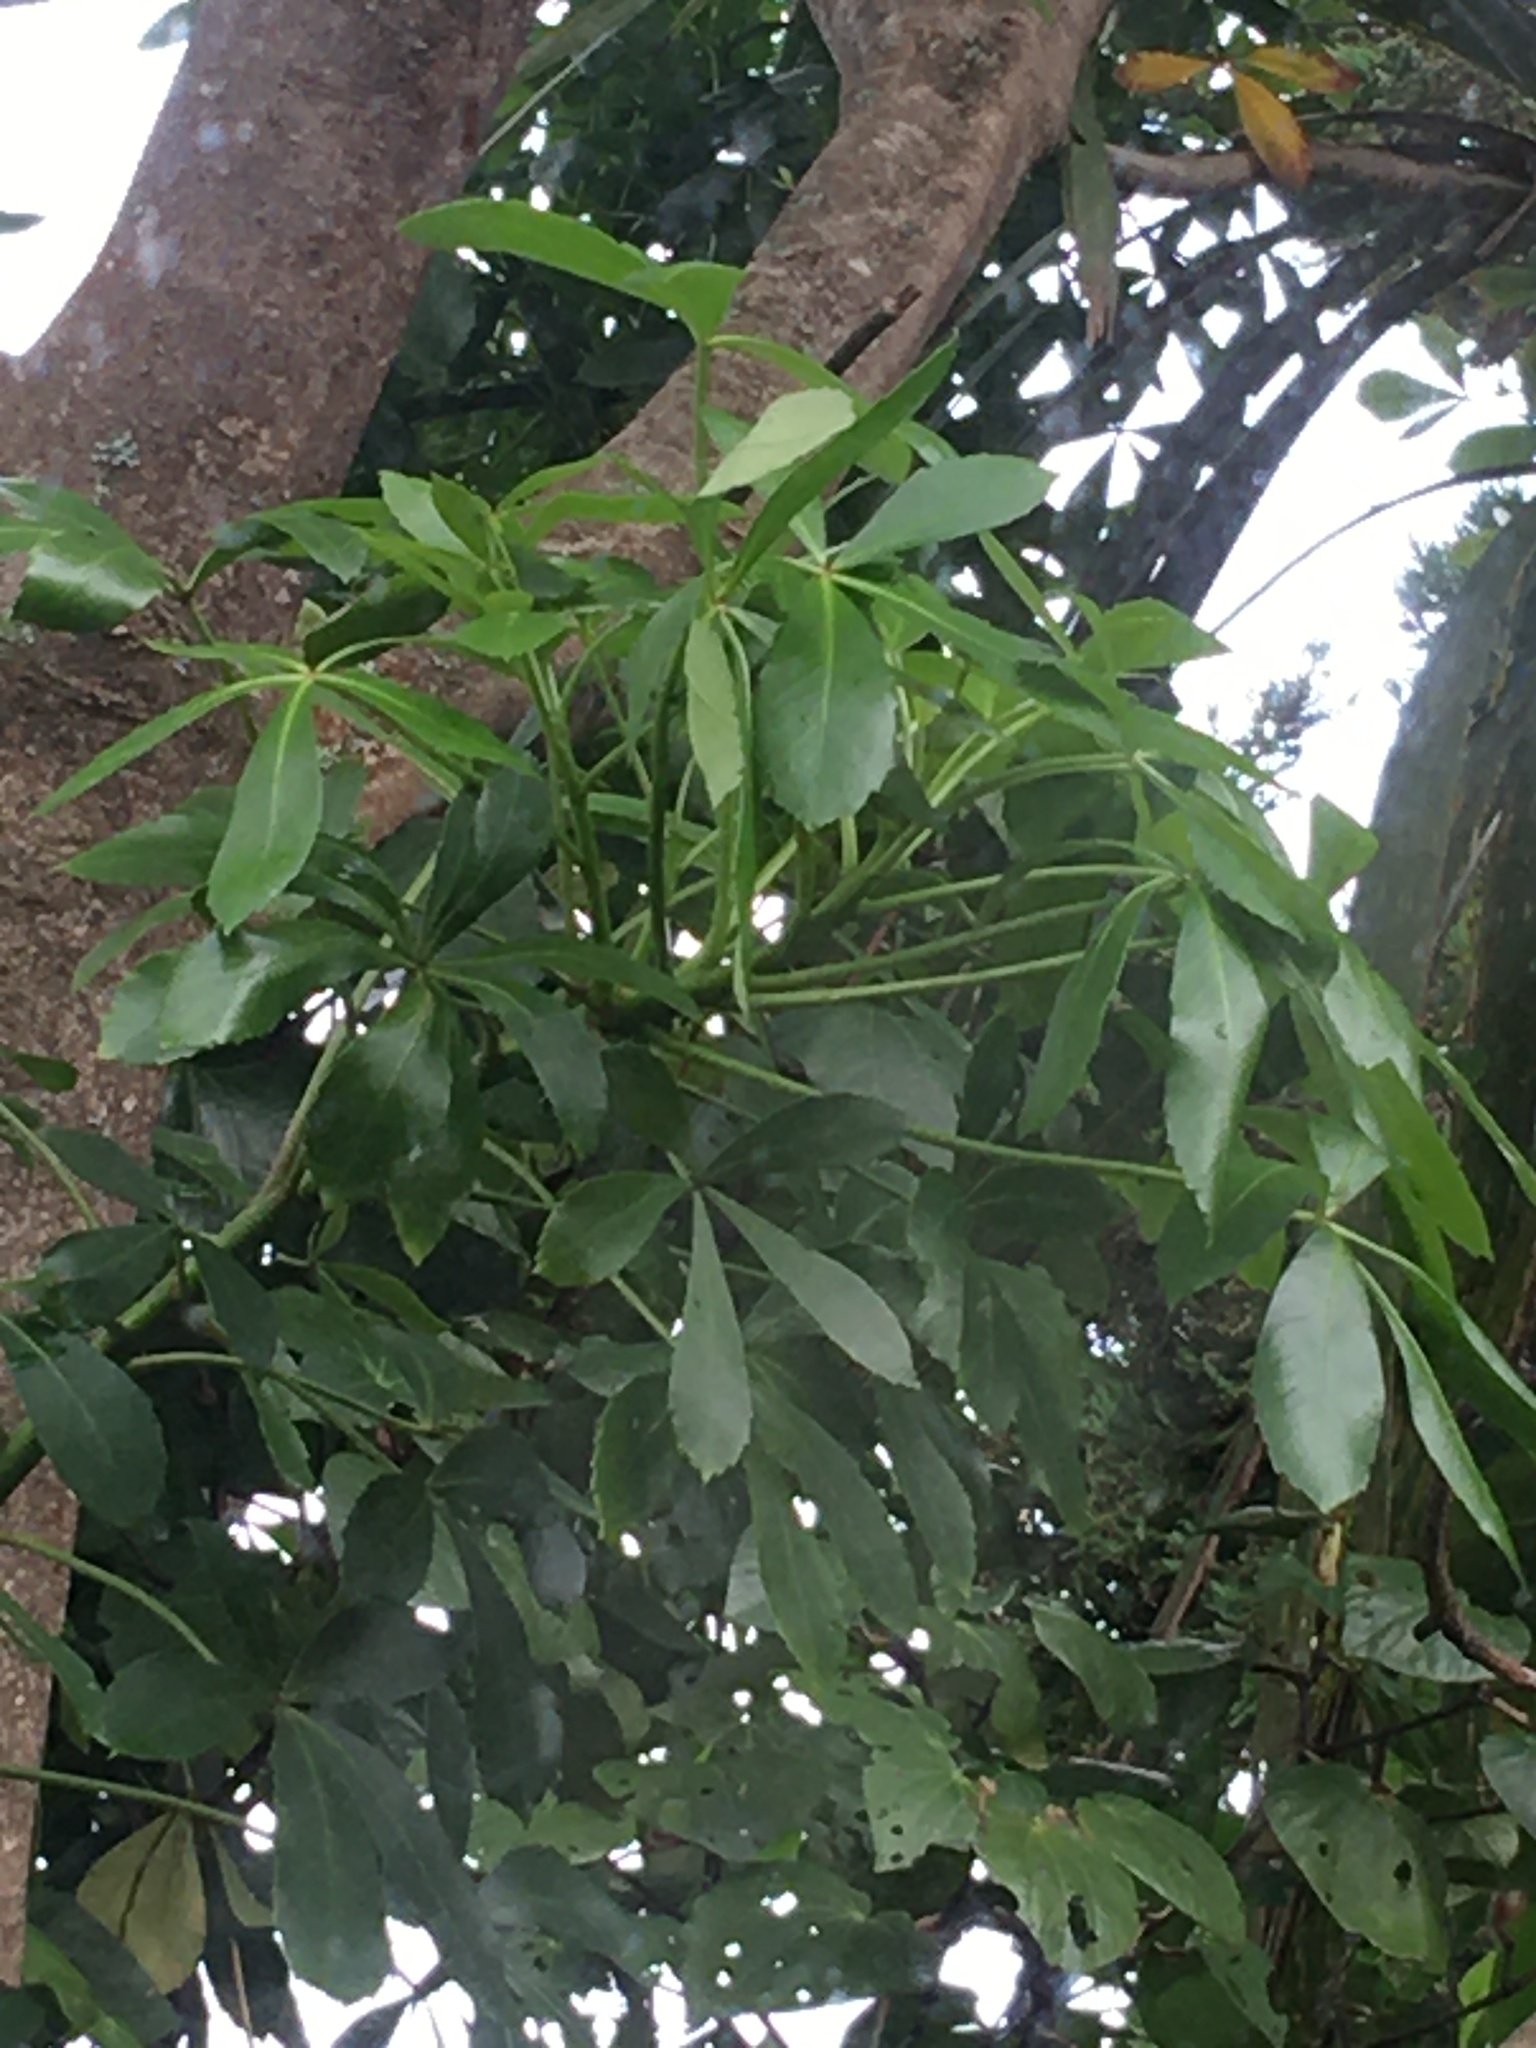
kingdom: Plantae
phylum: Tracheophyta
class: Magnoliopsida
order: Apiales
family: Araliaceae
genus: Pseudopanax
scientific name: Pseudopanax lessonii
